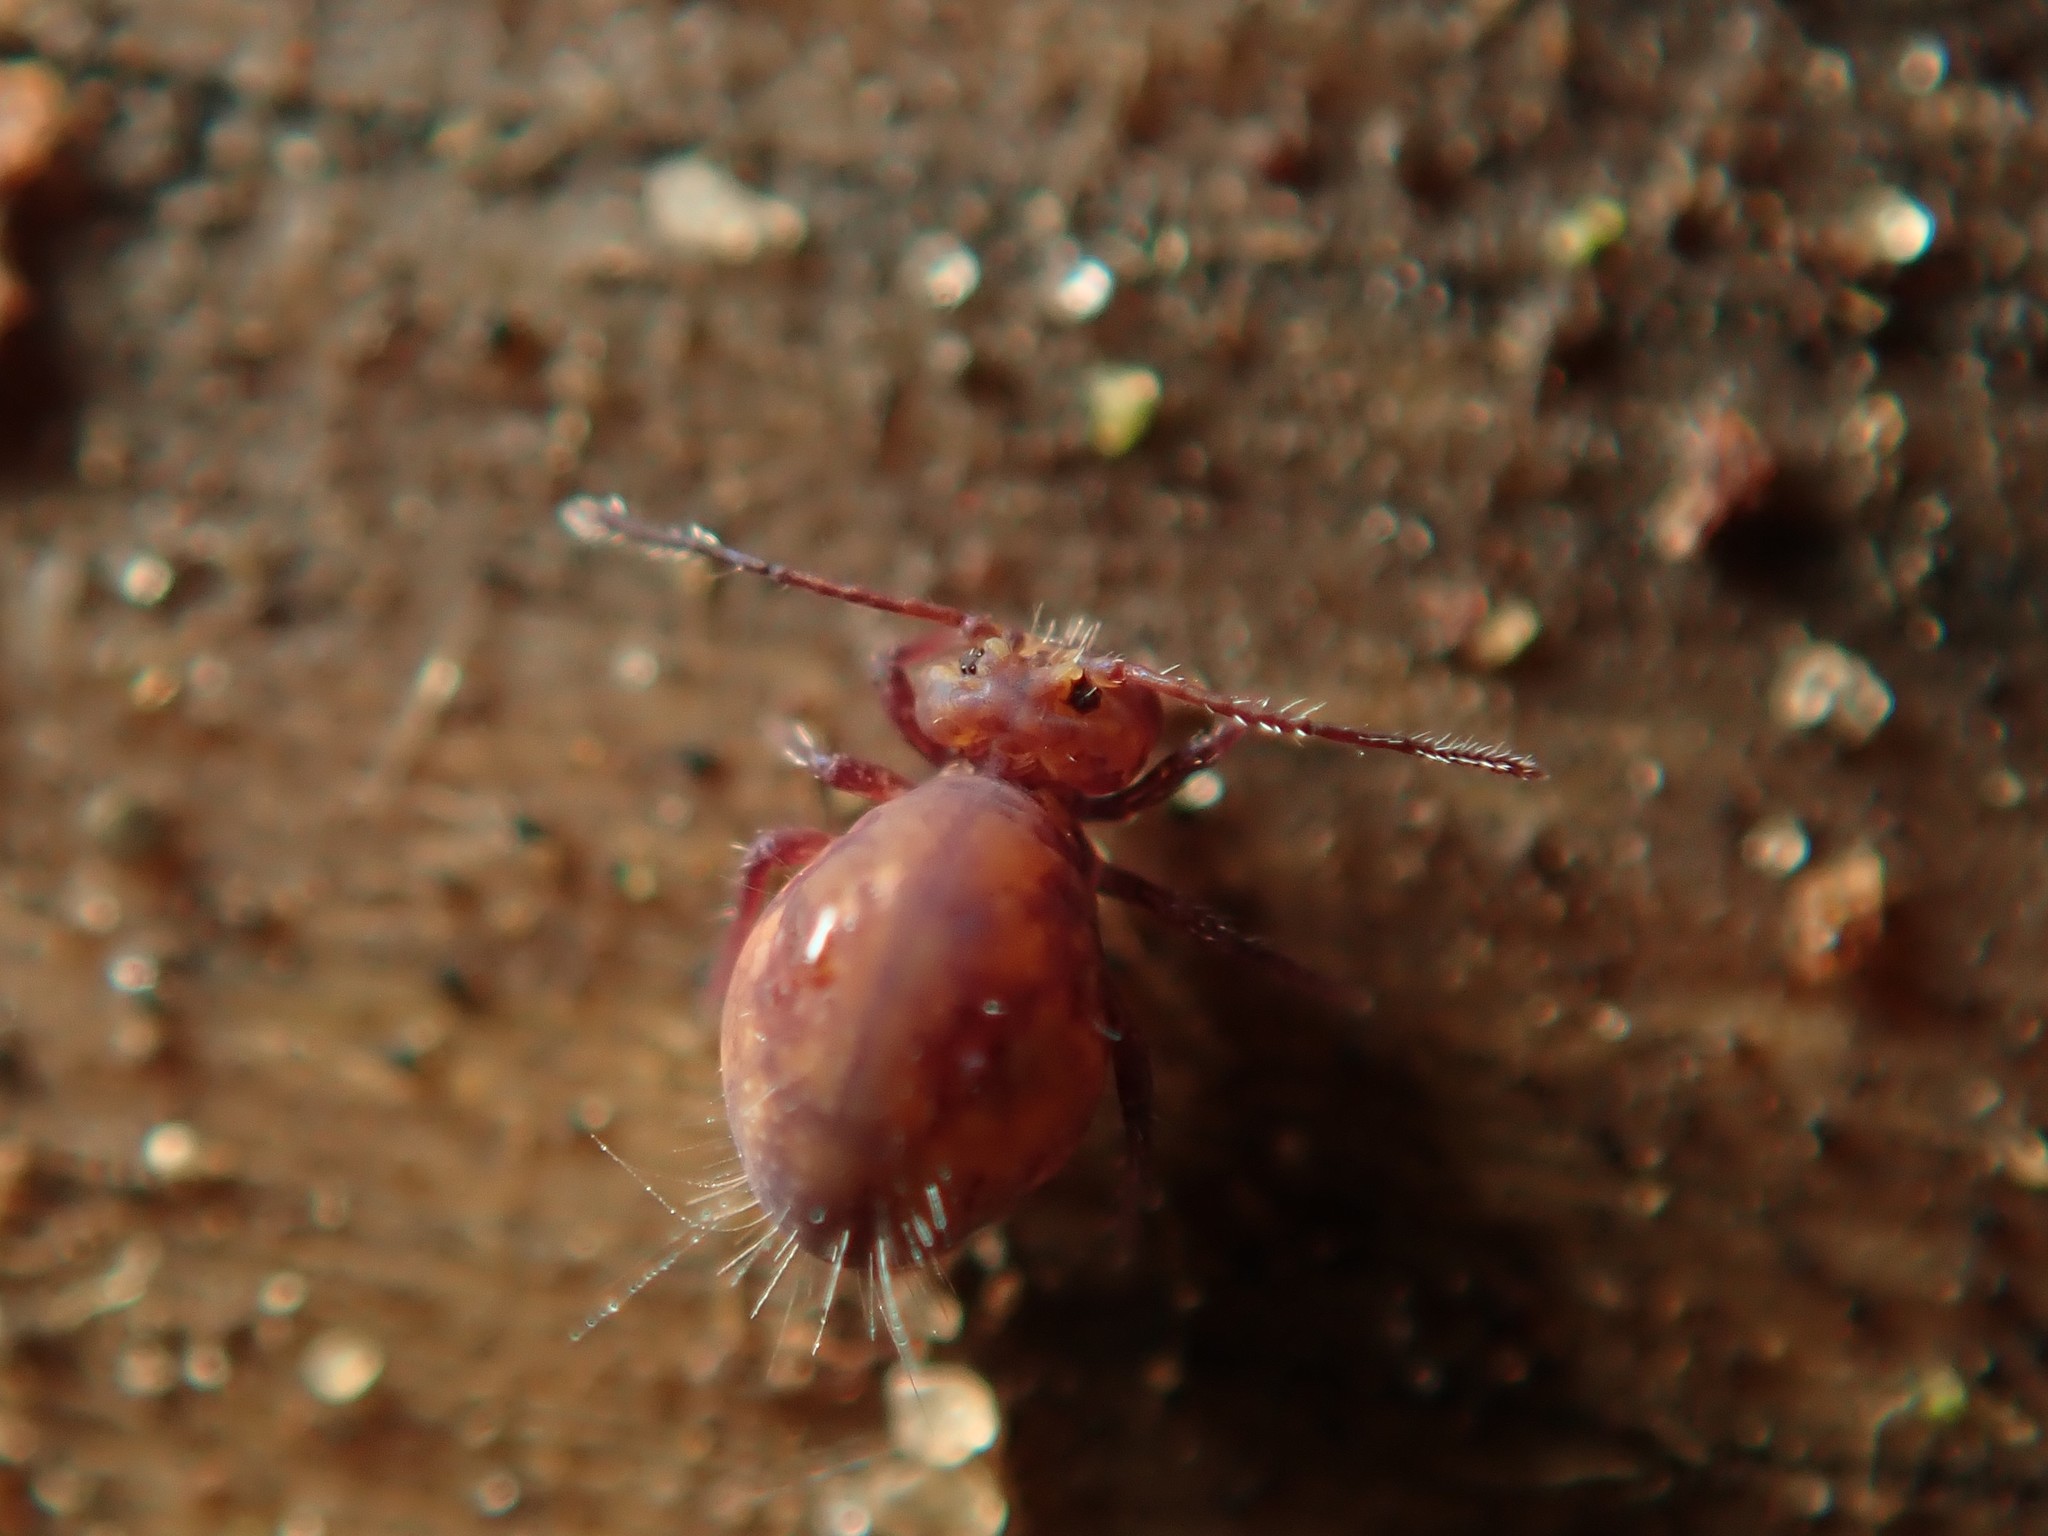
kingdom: Animalia
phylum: Arthropoda
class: Collembola
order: Symphypleona
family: Dicyrtomidae
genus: Dicyrtoma
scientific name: Dicyrtoma fusca
